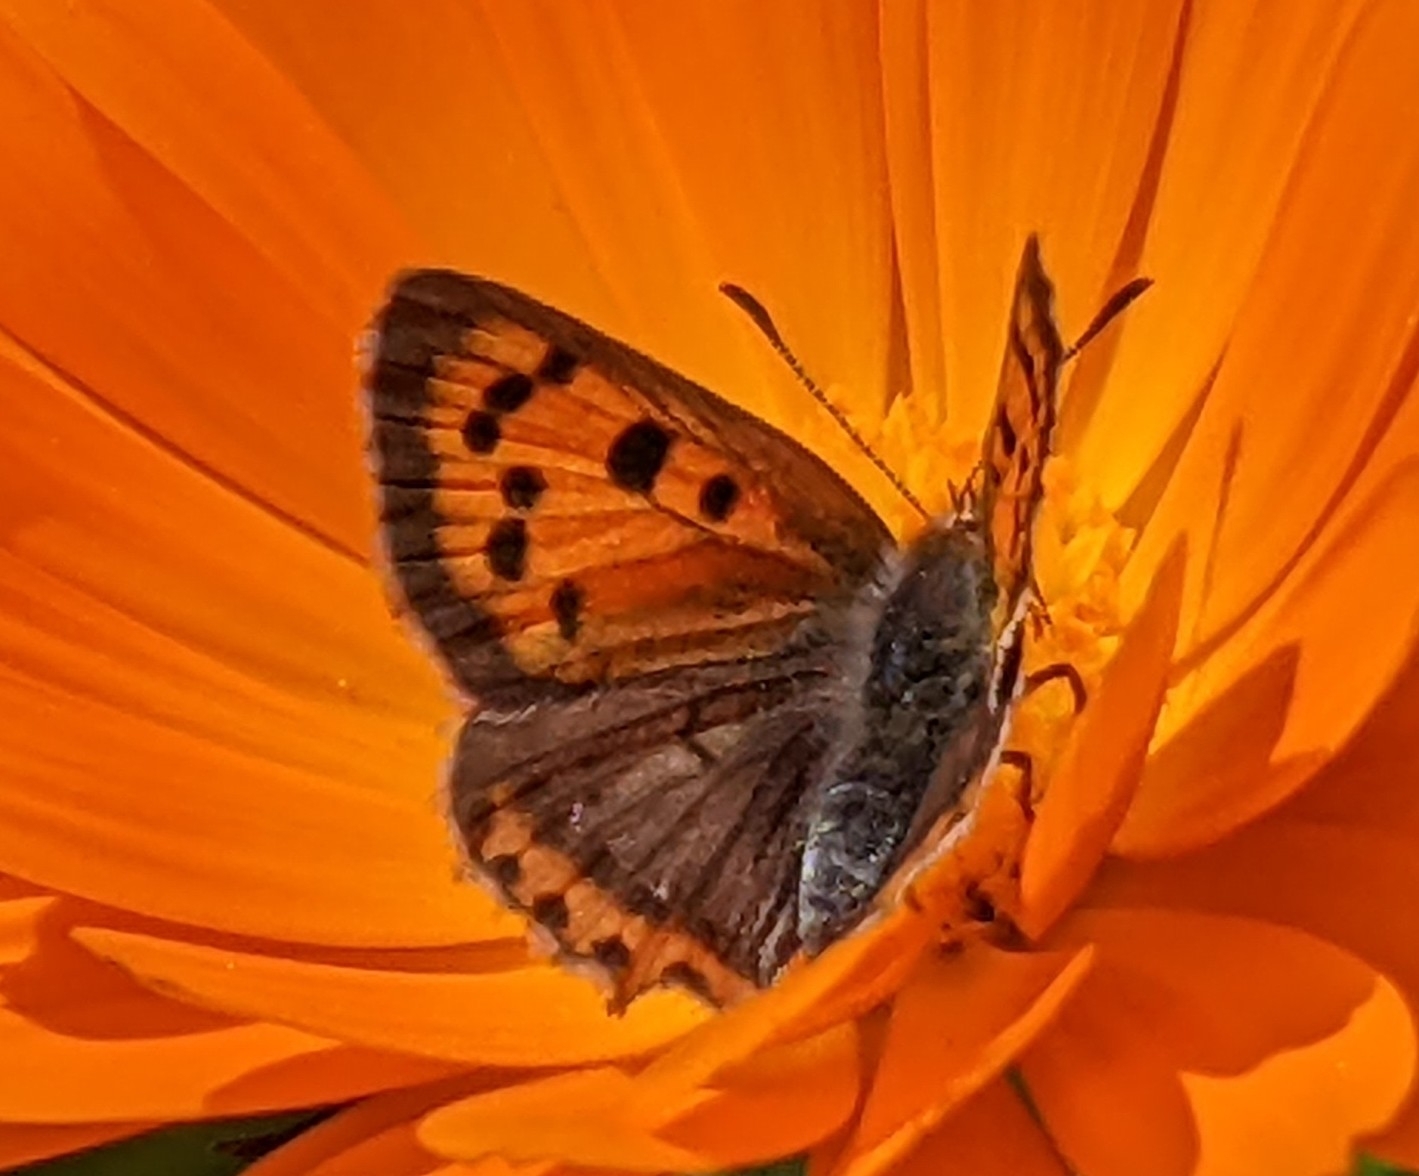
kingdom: Animalia
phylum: Arthropoda
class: Insecta
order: Lepidoptera
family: Lycaenidae
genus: Lycaena
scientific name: Lycaena phlaeas
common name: Small copper
